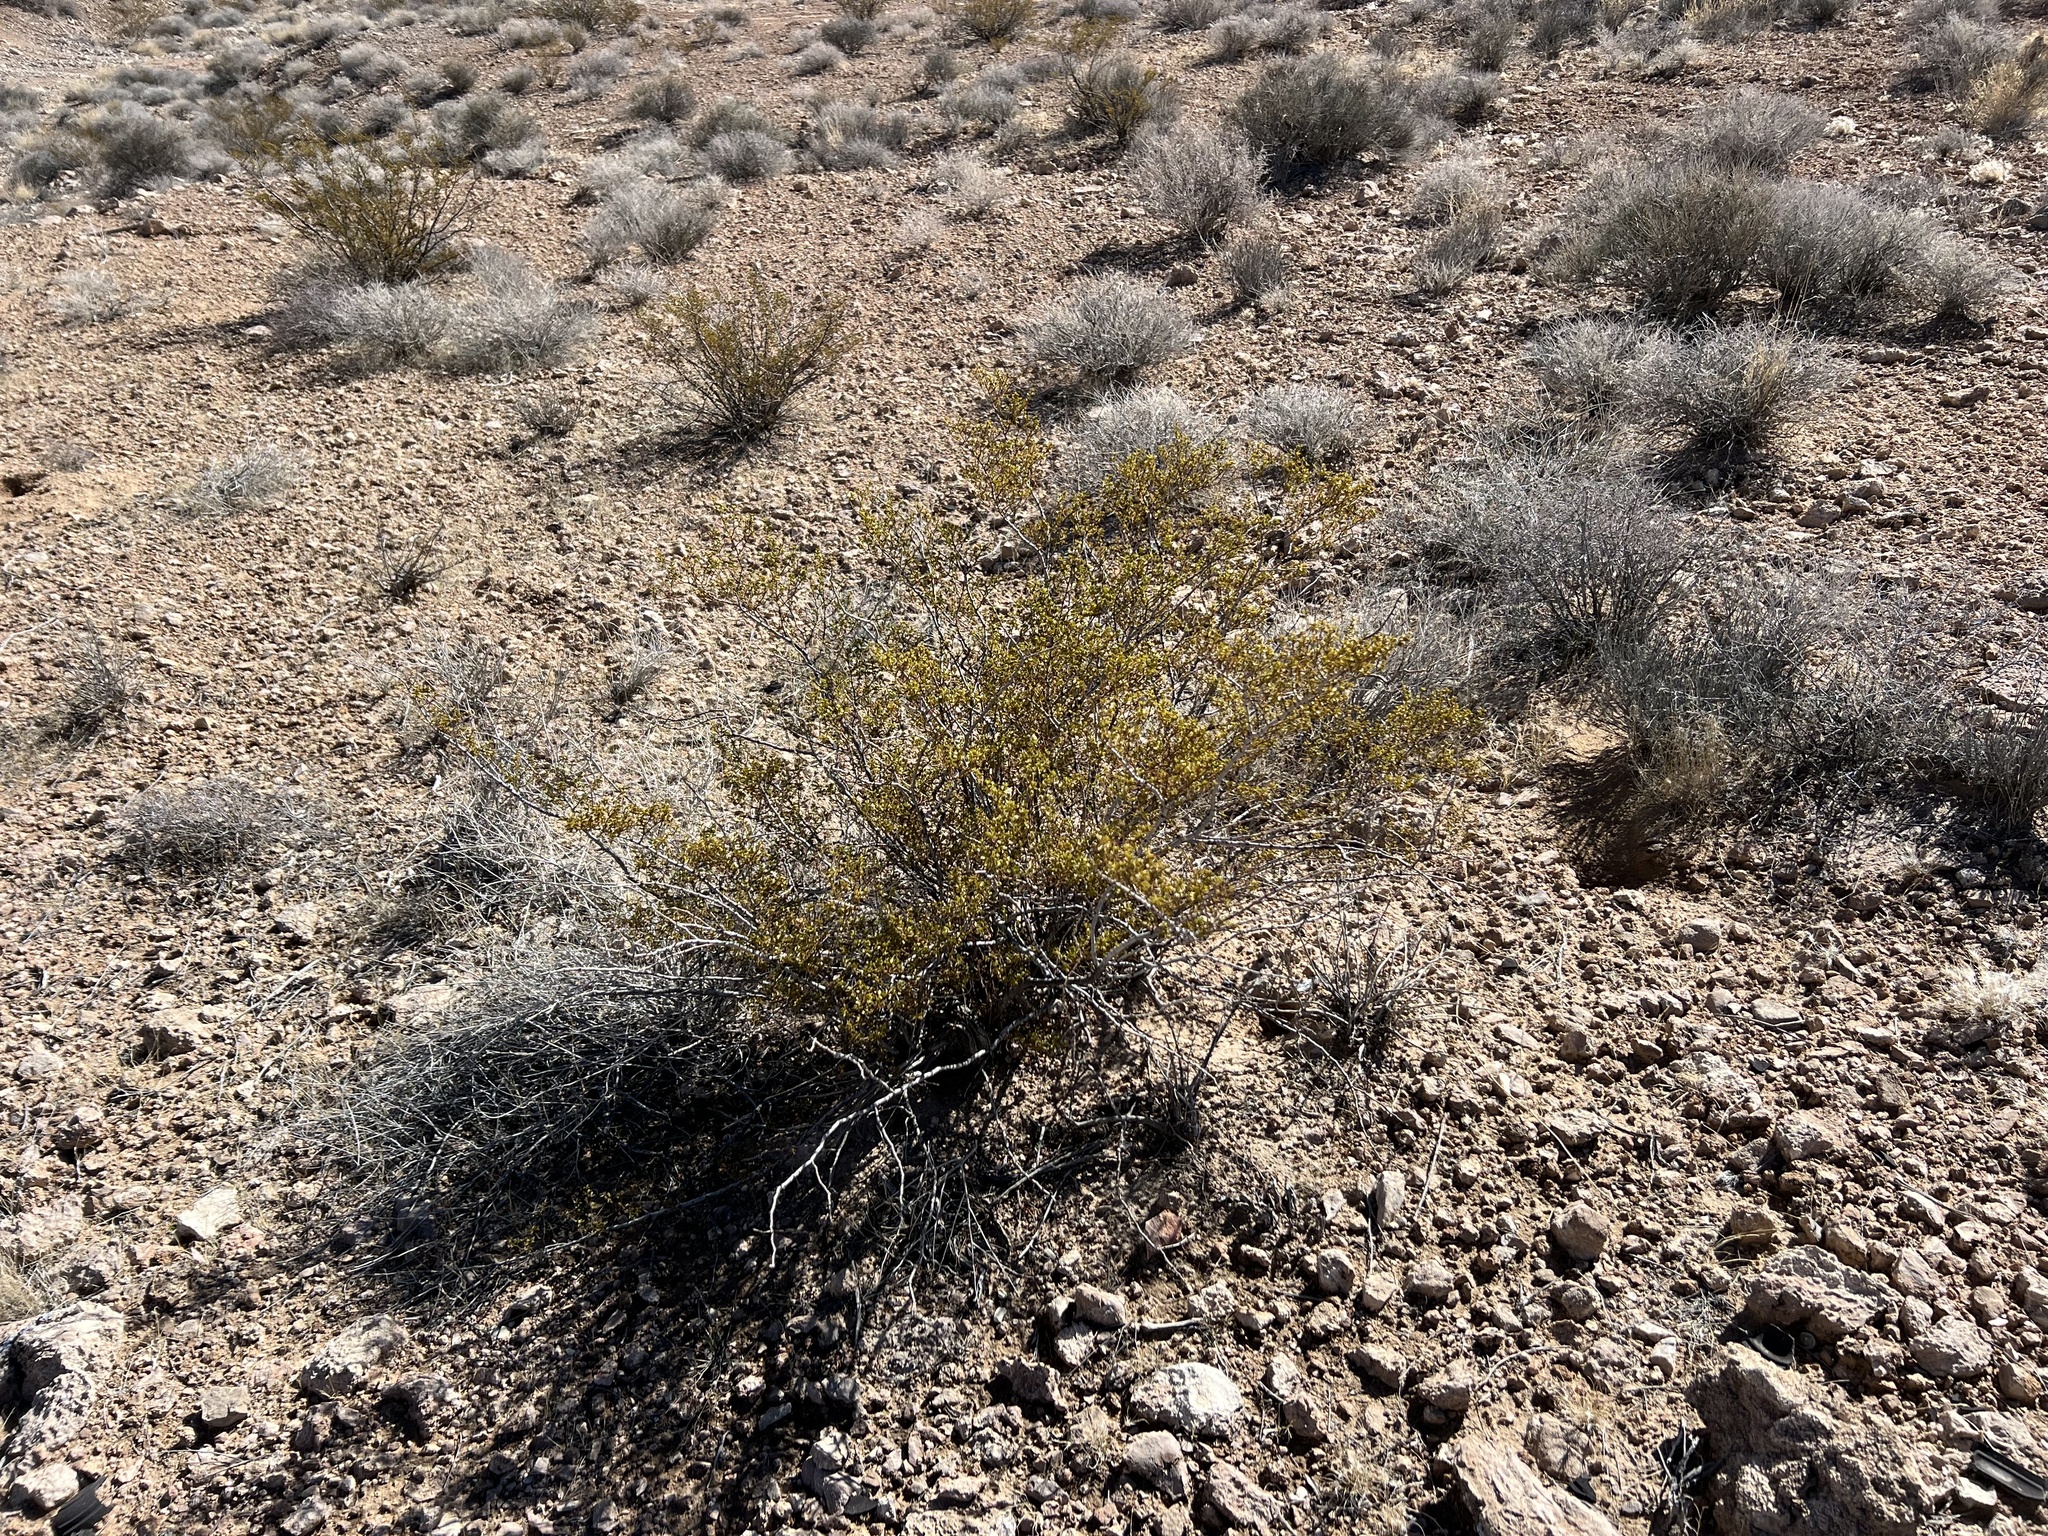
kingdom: Plantae
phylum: Tracheophyta
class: Magnoliopsida
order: Zygophyllales
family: Zygophyllaceae
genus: Larrea
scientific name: Larrea tridentata
